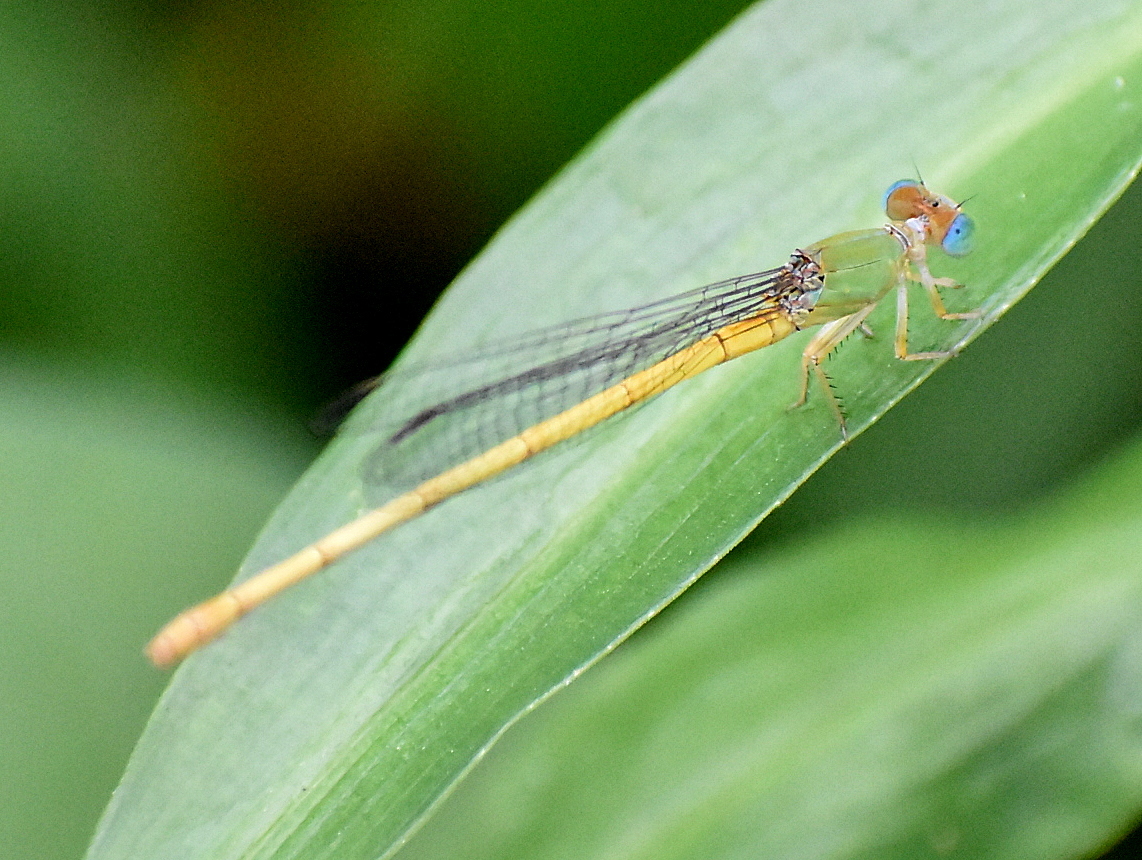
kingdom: Animalia
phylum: Arthropoda
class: Insecta
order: Odonata
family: Coenagrionidae
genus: Ceriagrion
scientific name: Ceriagrion coromandelianum
